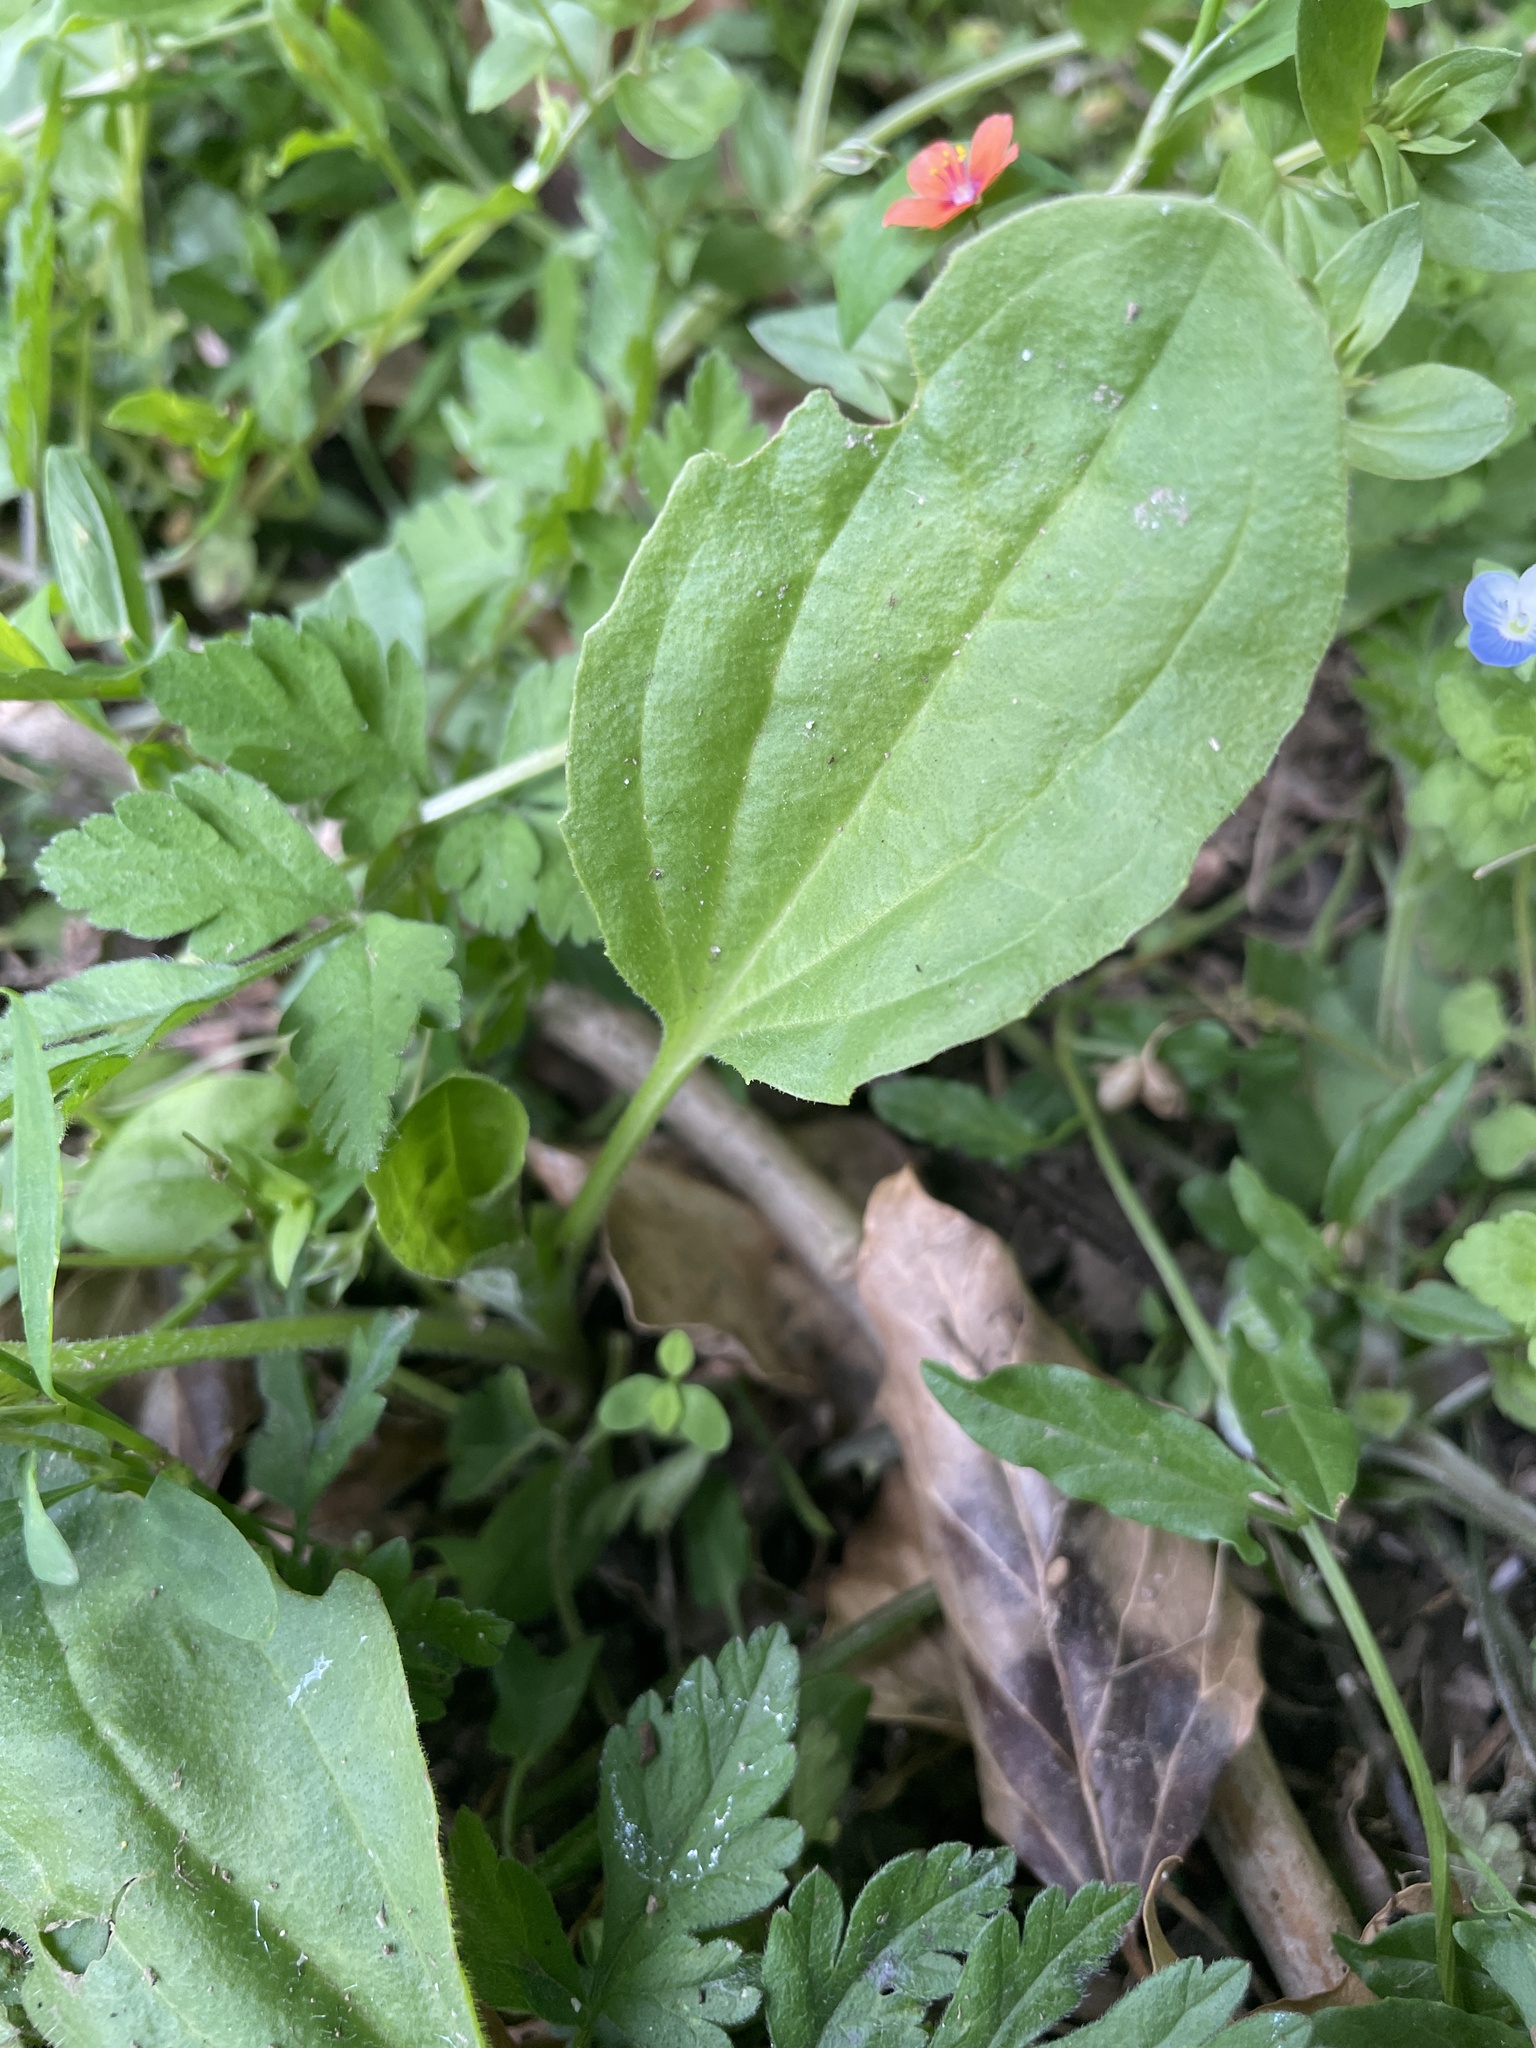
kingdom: Plantae
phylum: Tracheophyta
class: Magnoliopsida
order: Lamiales
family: Plantaginaceae
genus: Plantago
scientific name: Plantago major
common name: Common plantain
